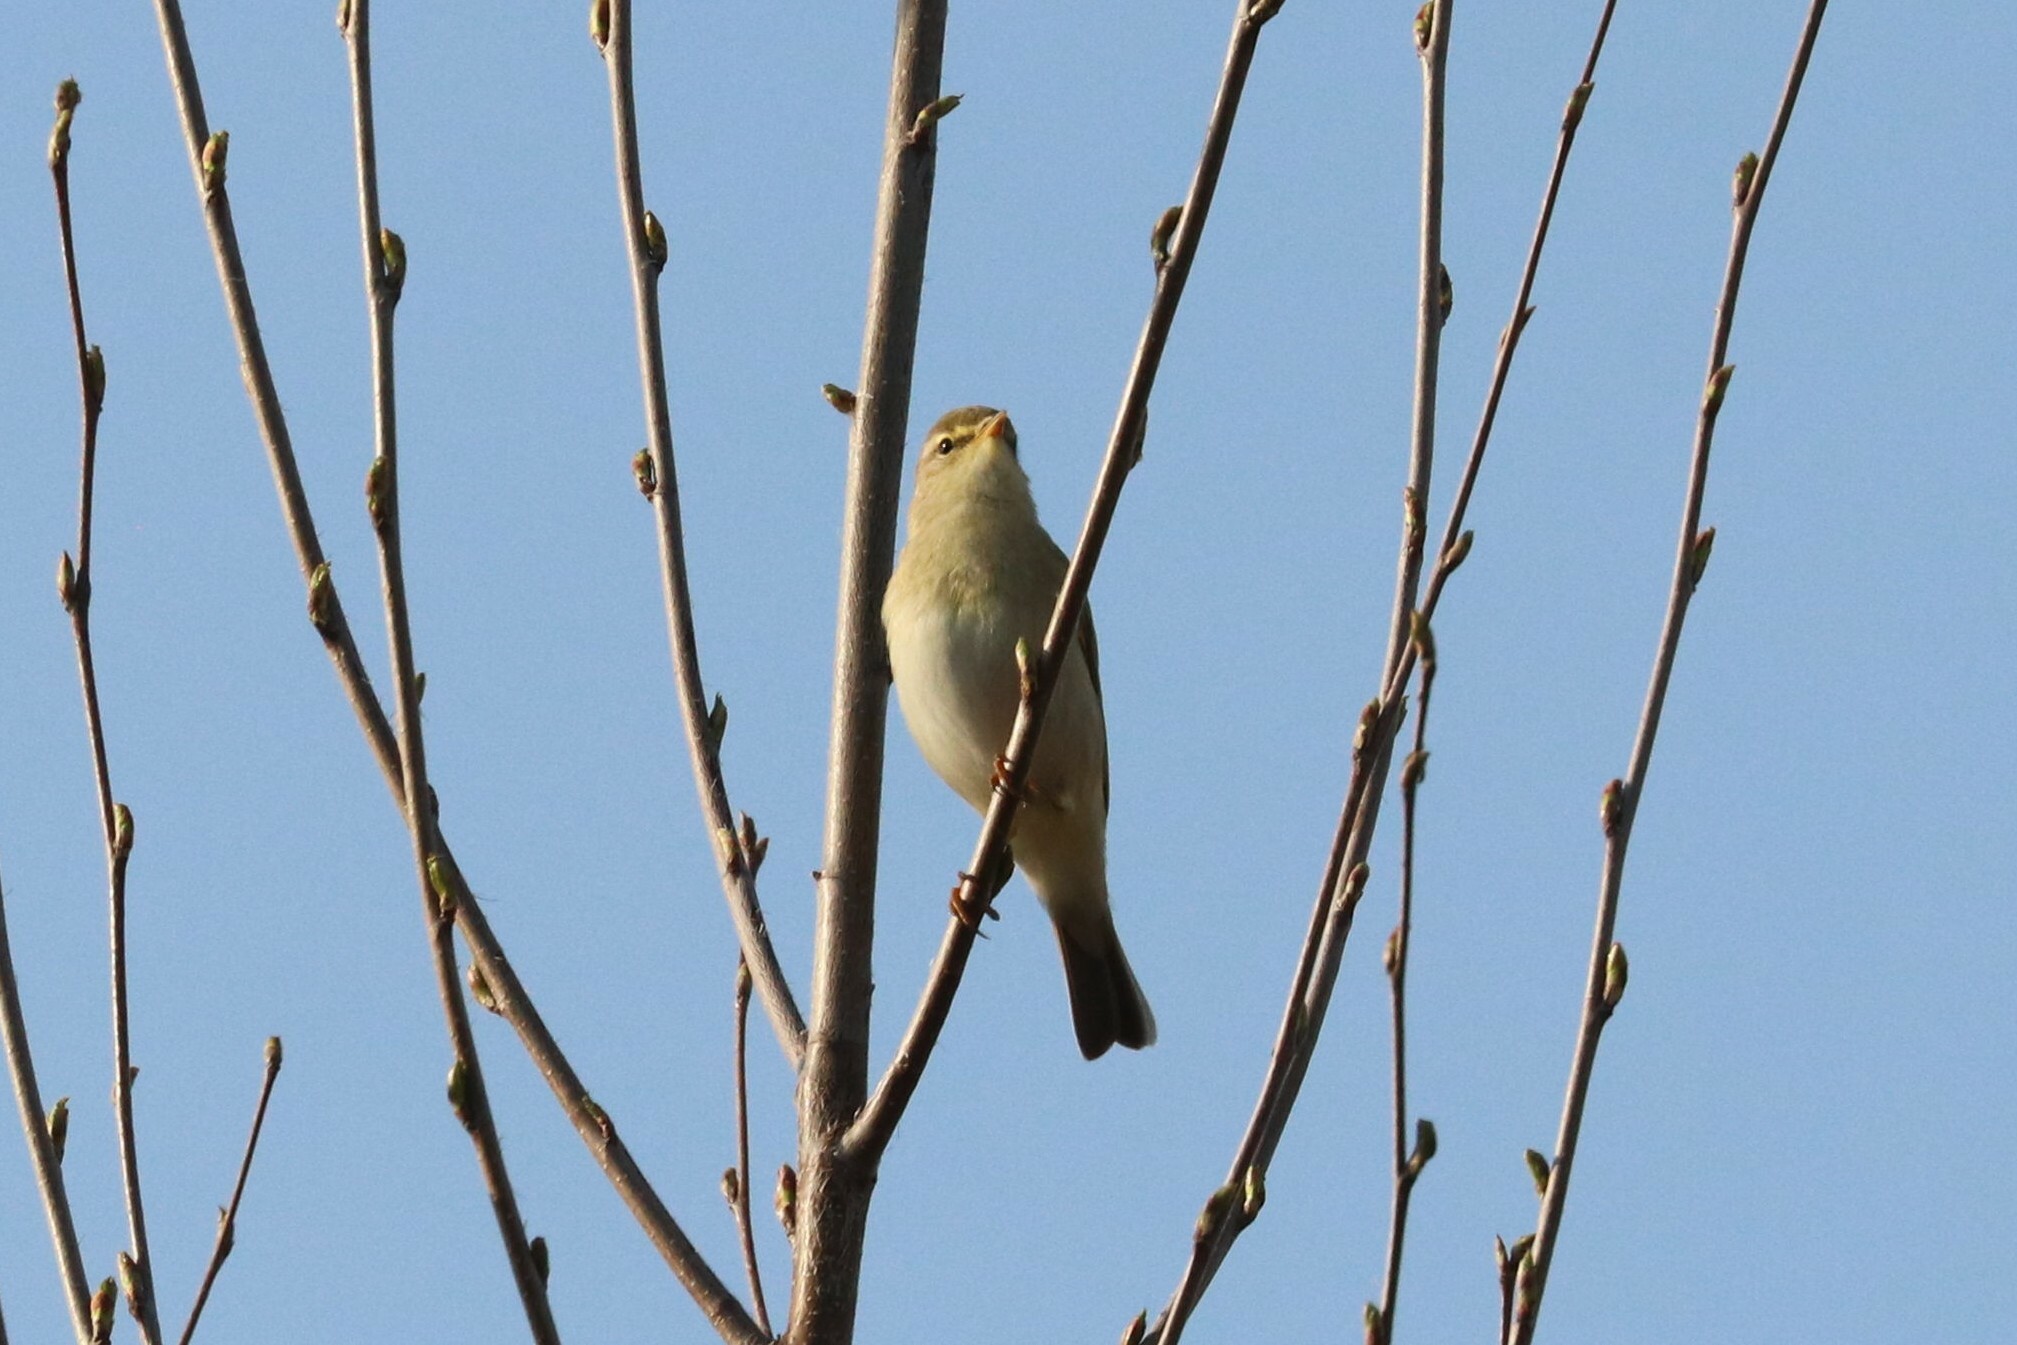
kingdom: Animalia
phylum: Chordata
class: Aves
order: Passeriformes
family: Phylloscopidae
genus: Phylloscopus
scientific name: Phylloscopus trochilus
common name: Willow warbler
